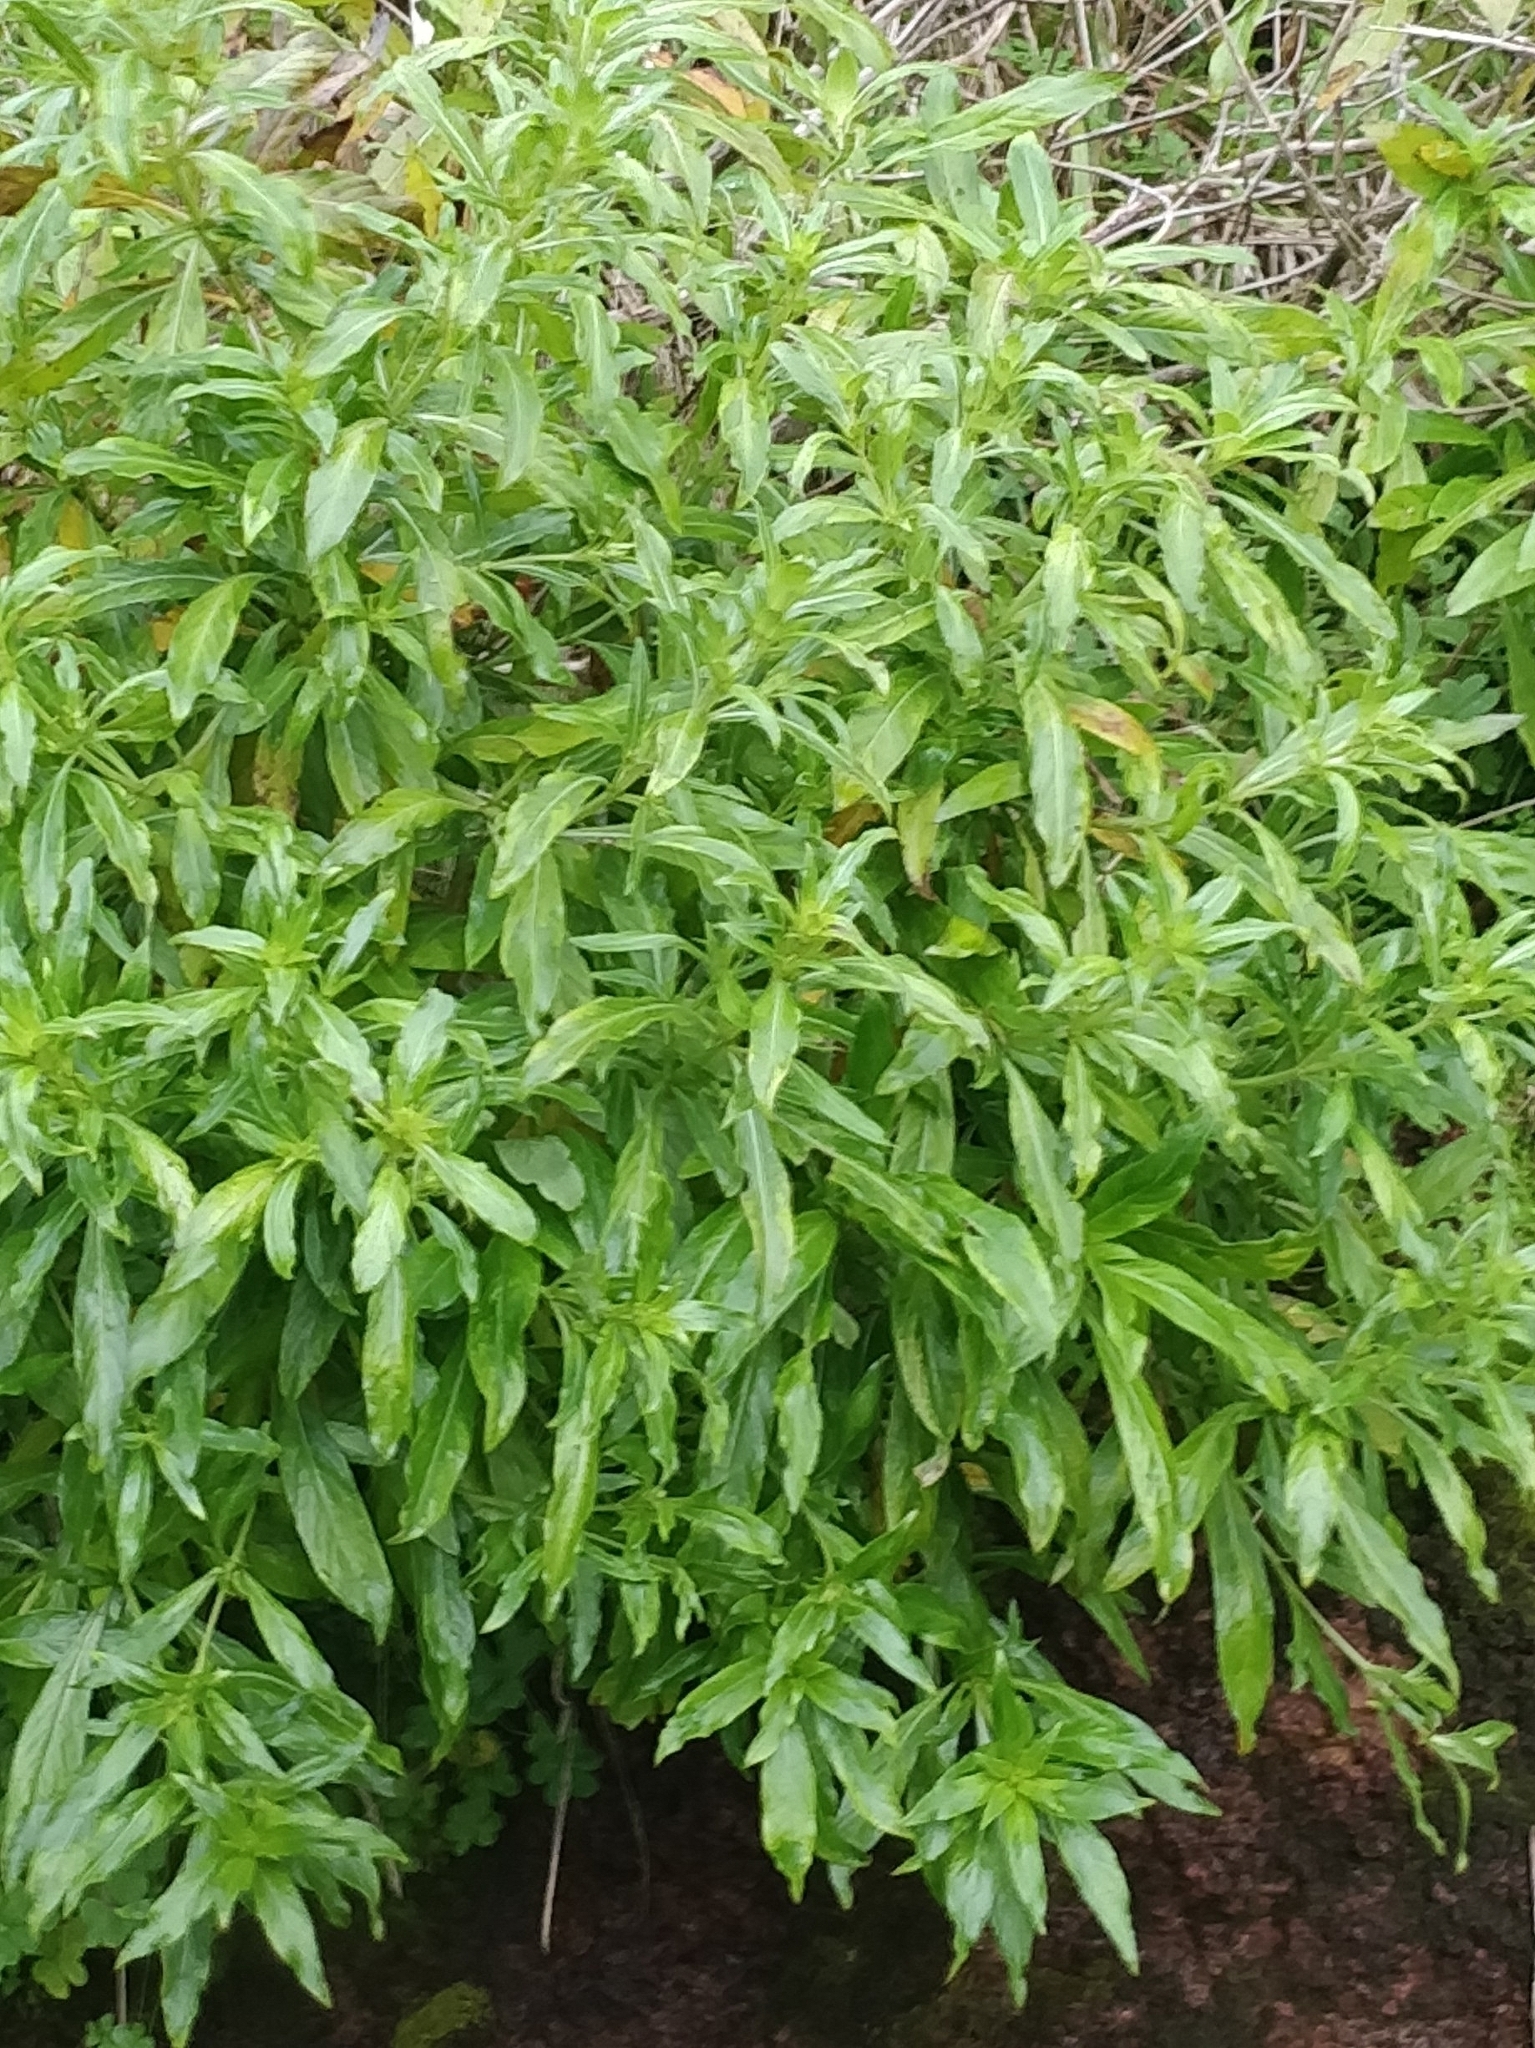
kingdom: Plantae
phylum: Tracheophyta
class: Magnoliopsida
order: Gentianales
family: Rubiaceae
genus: Phyllis
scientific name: Phyllis nobla
